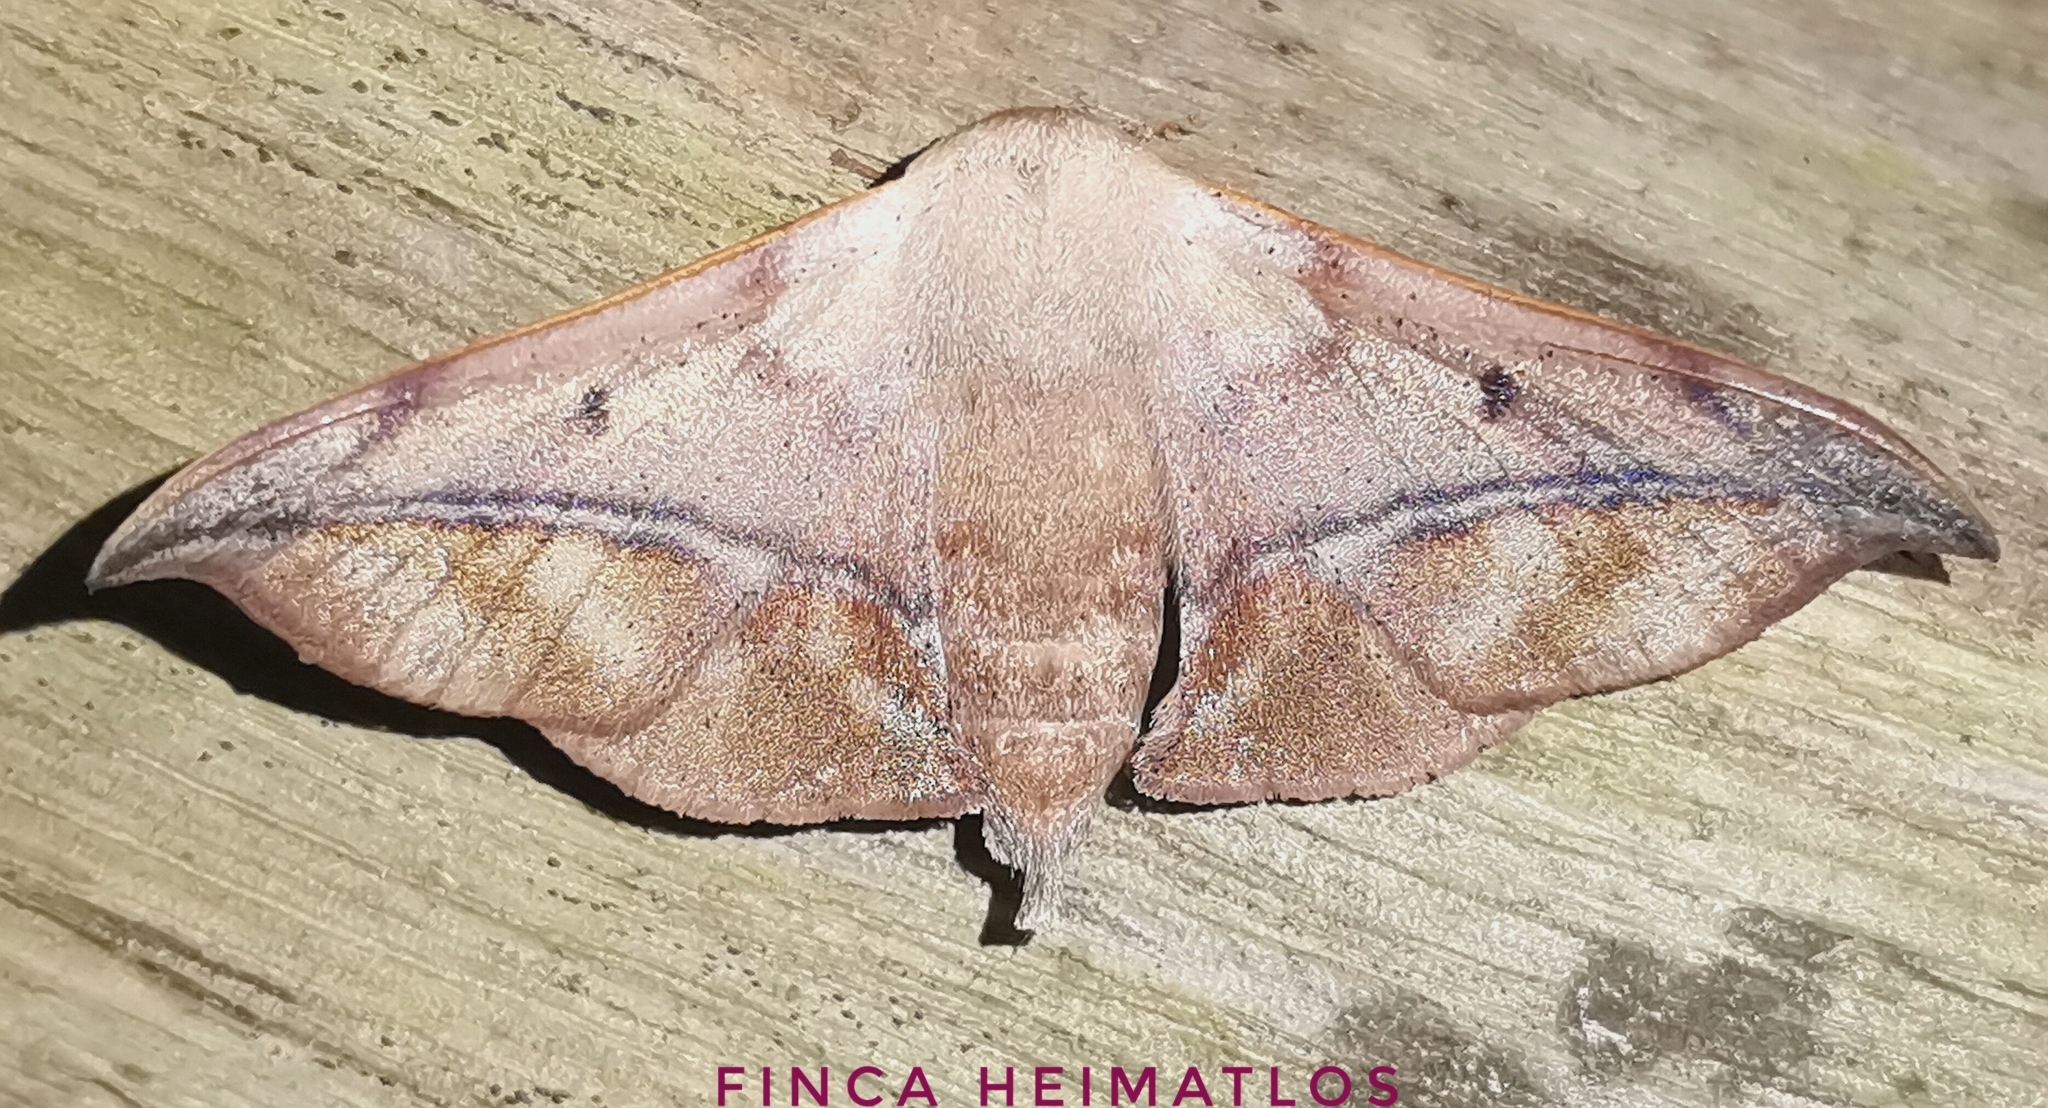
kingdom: Animalia
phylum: Arthropoda
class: Insecta
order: Lepidoptera
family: Mimallonidae
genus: Thaelia
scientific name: Thaelia beniensis
